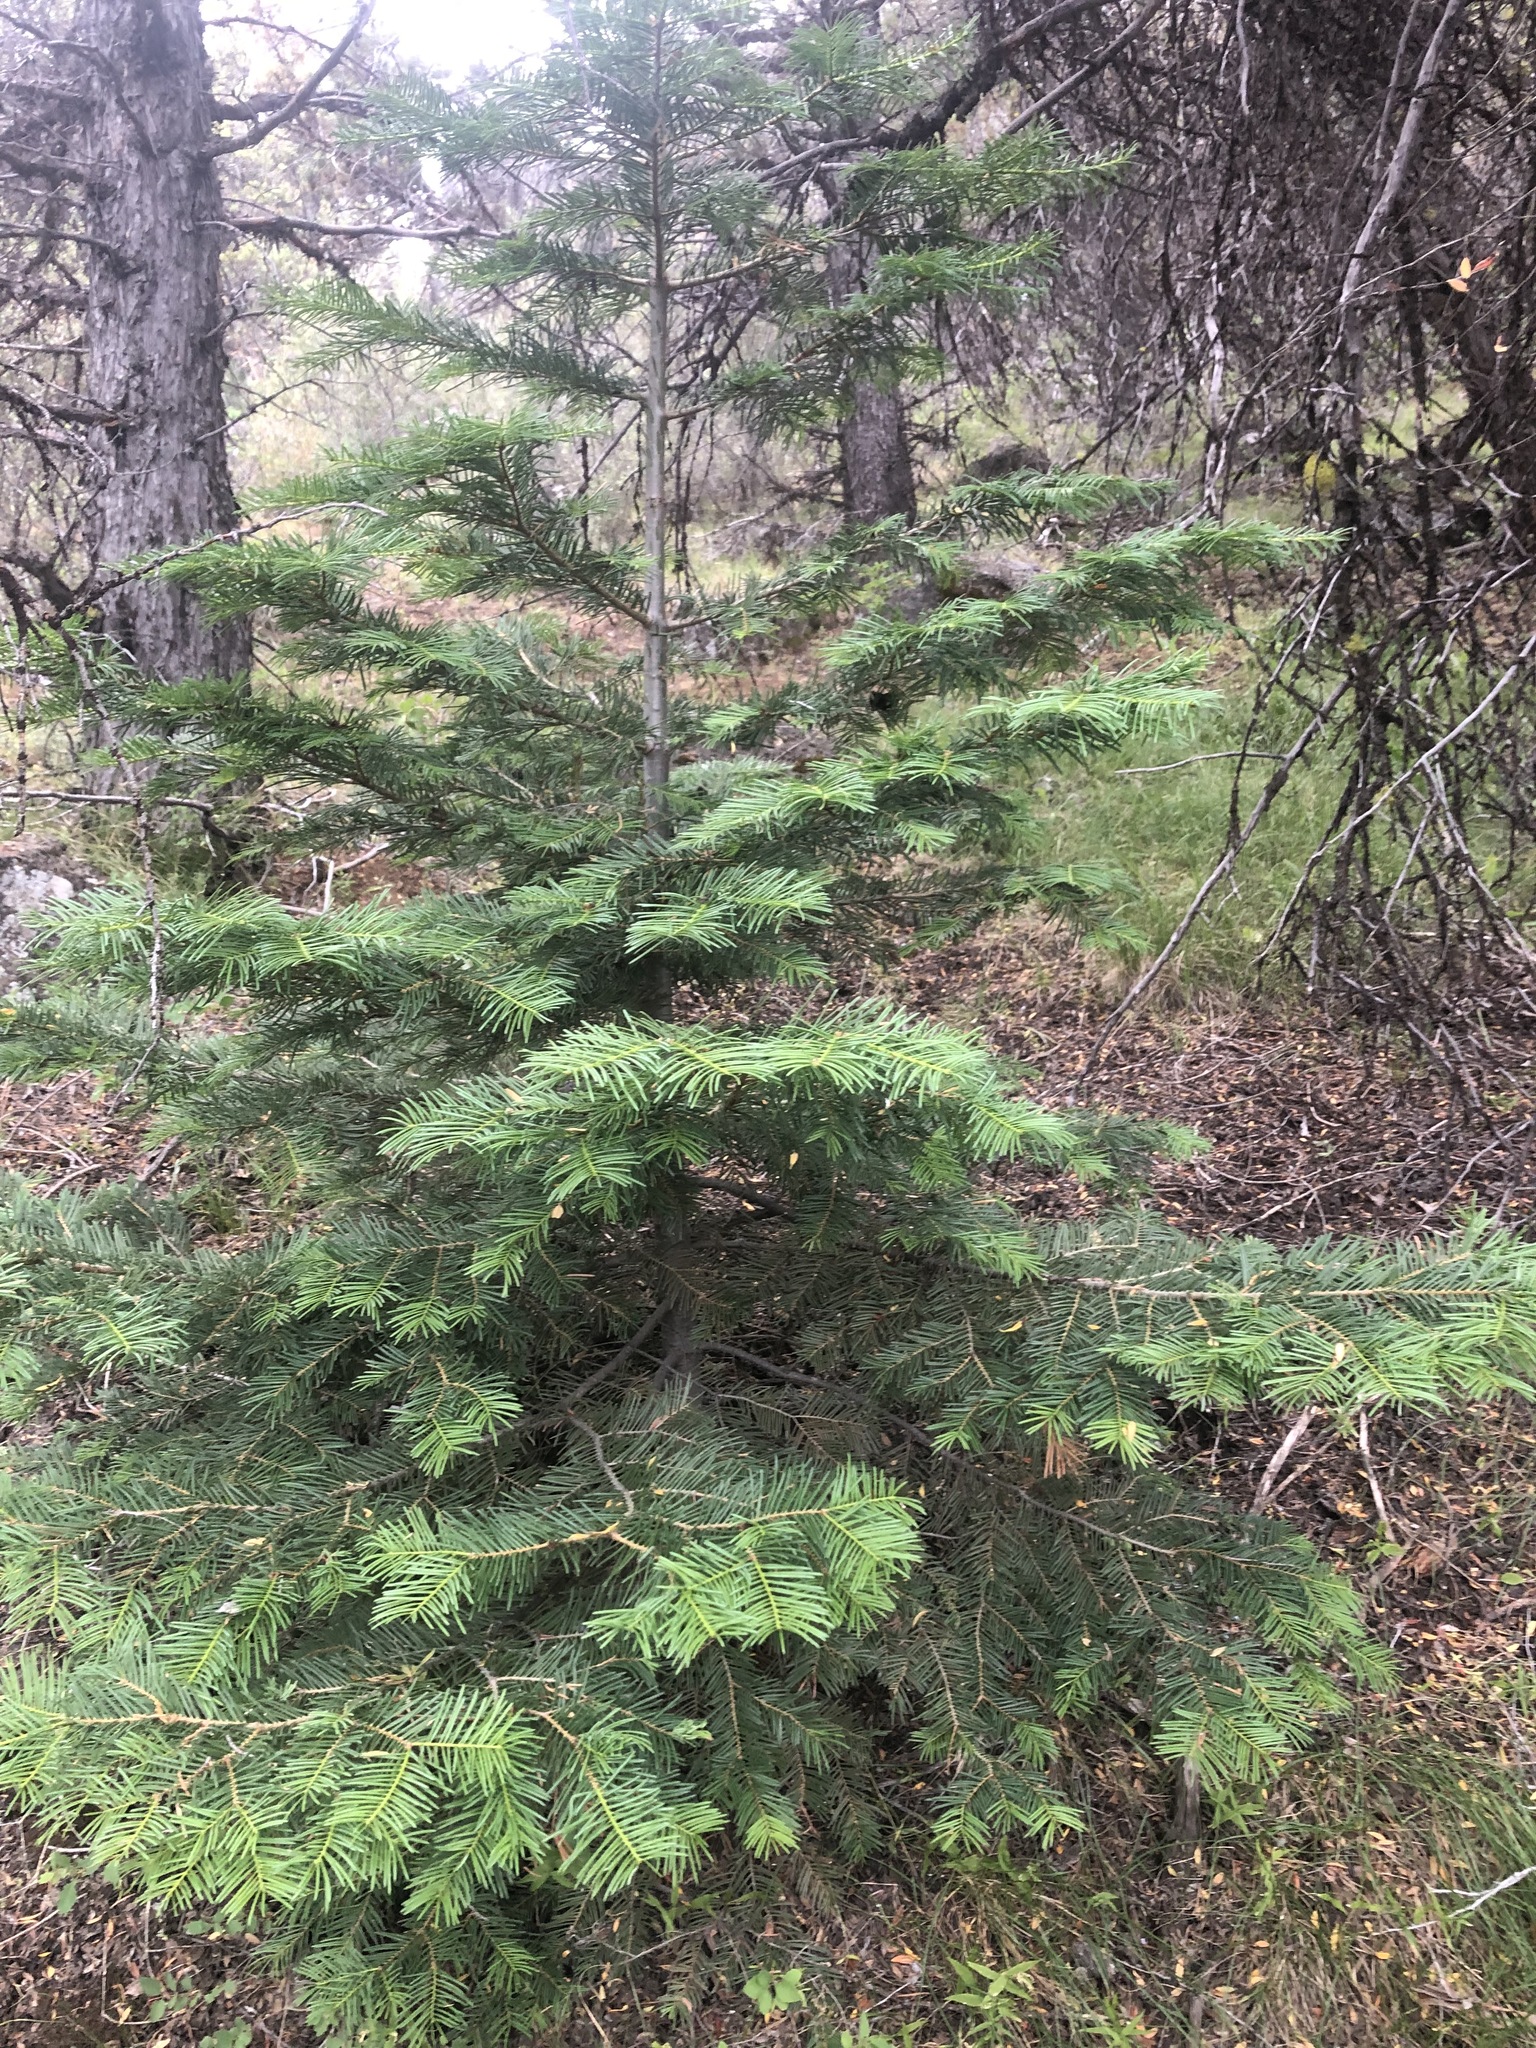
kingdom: Plantae
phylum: Tracheophyta
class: Pinopsida
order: Pinales
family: Pinaceae
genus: Abies
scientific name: Abies concolor
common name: Colorado fir
